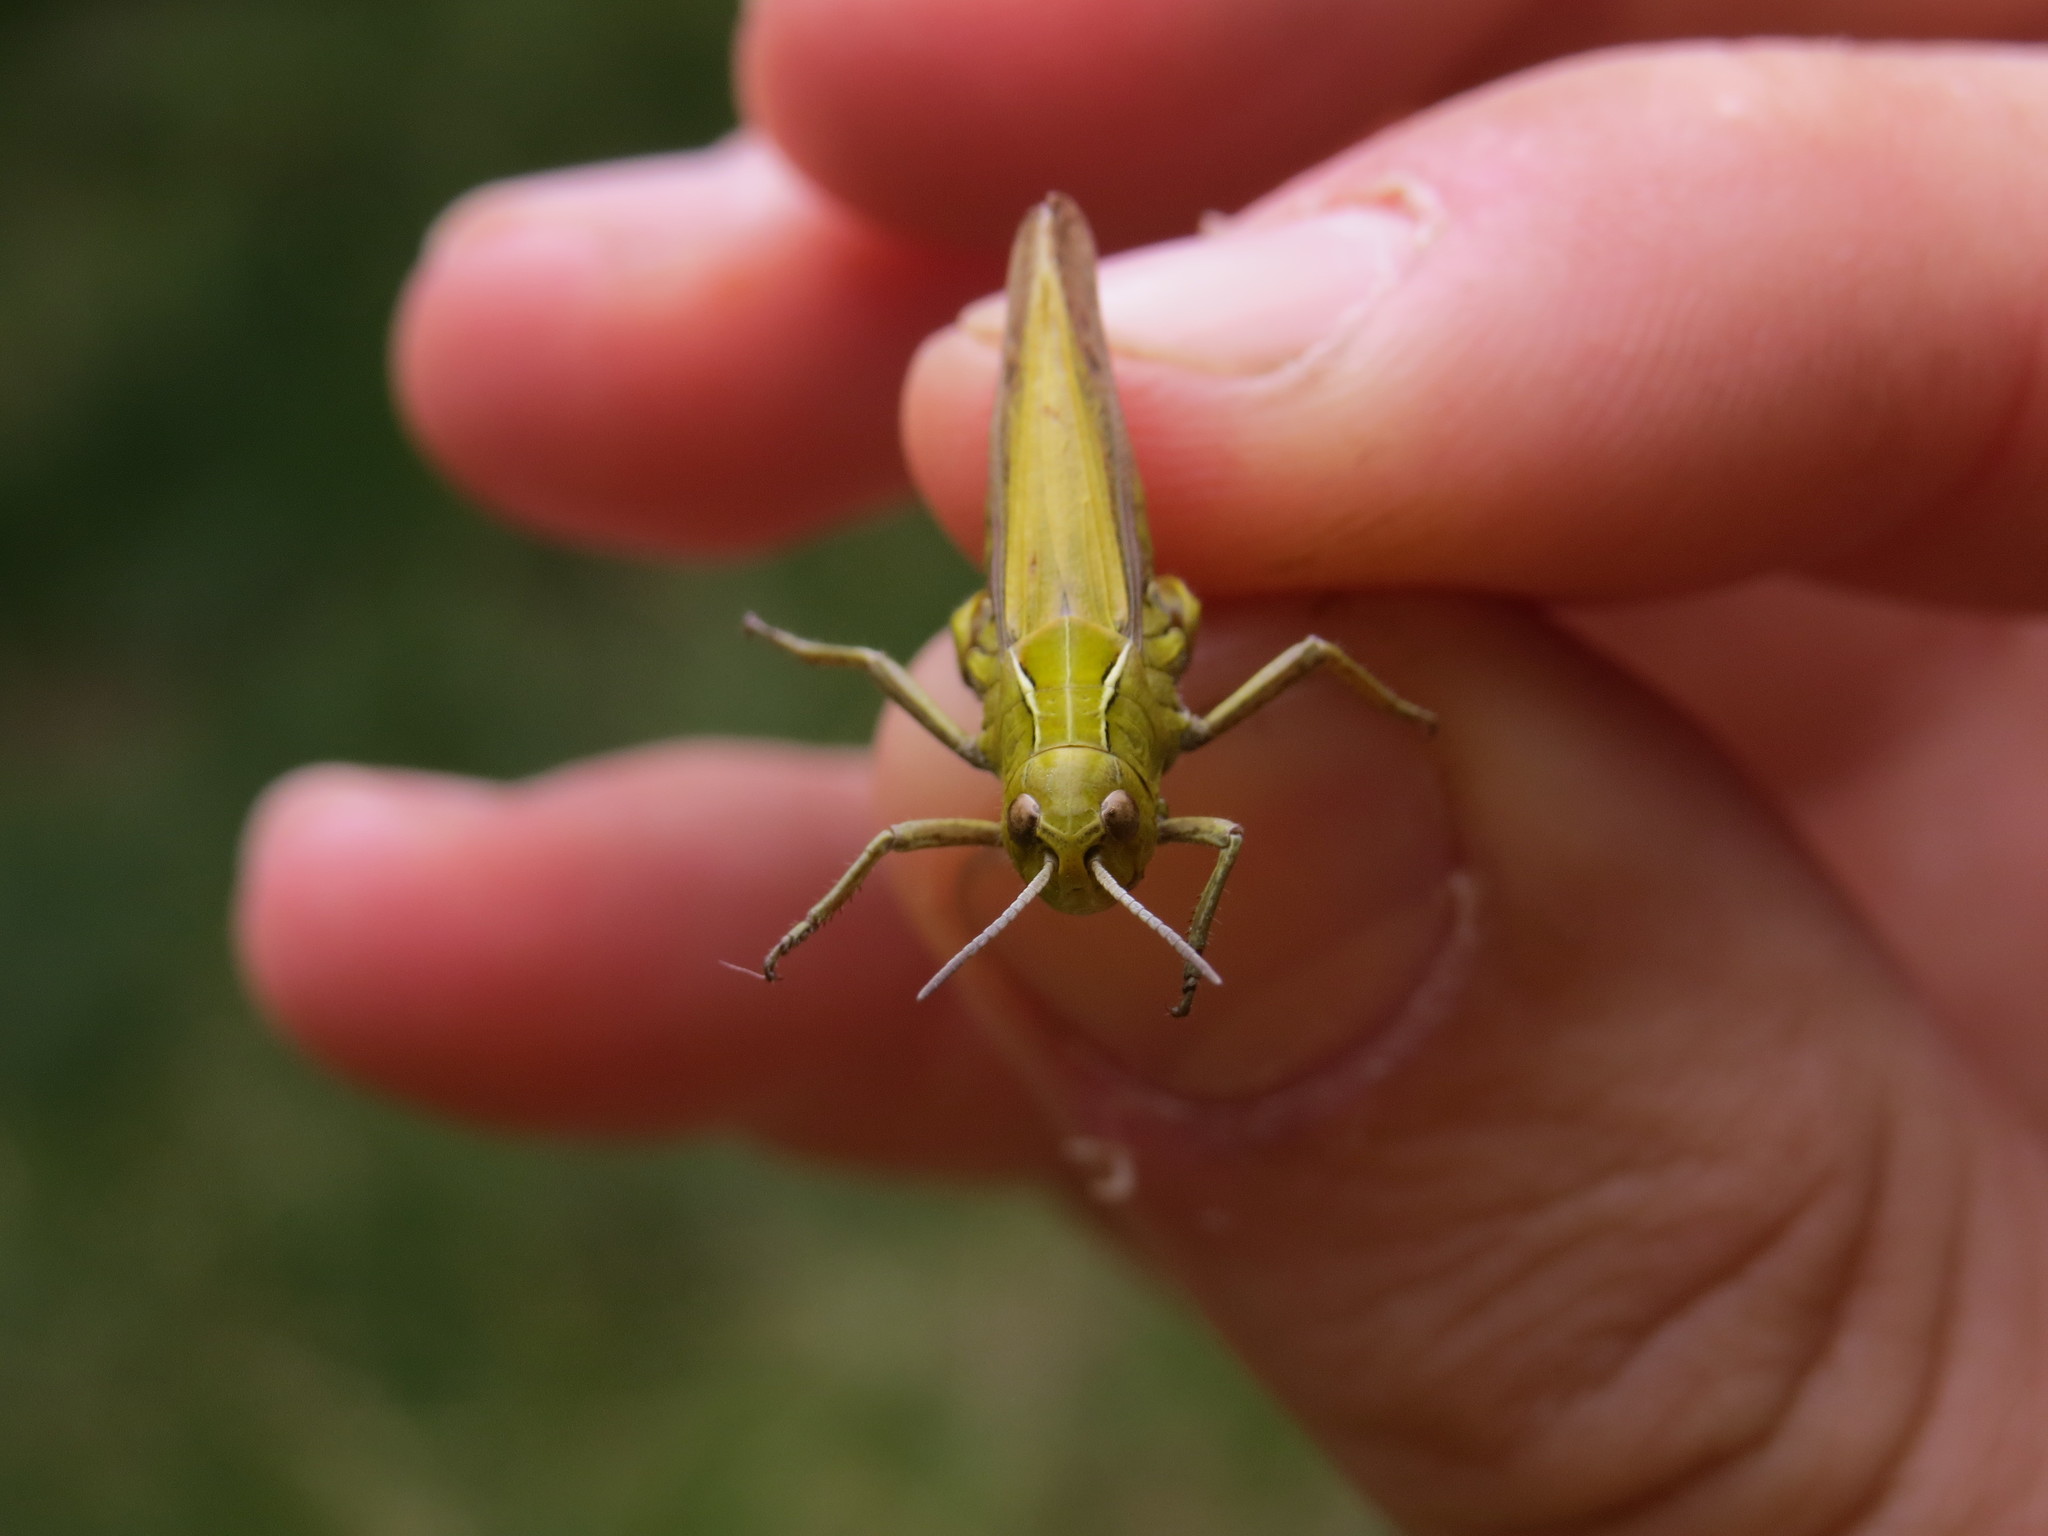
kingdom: Animalia
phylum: Arthropoda
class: Insecta
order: Orthoptera
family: Acrididae
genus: Omocestus
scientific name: Omocestus viridulus
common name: Common green grasshopper
